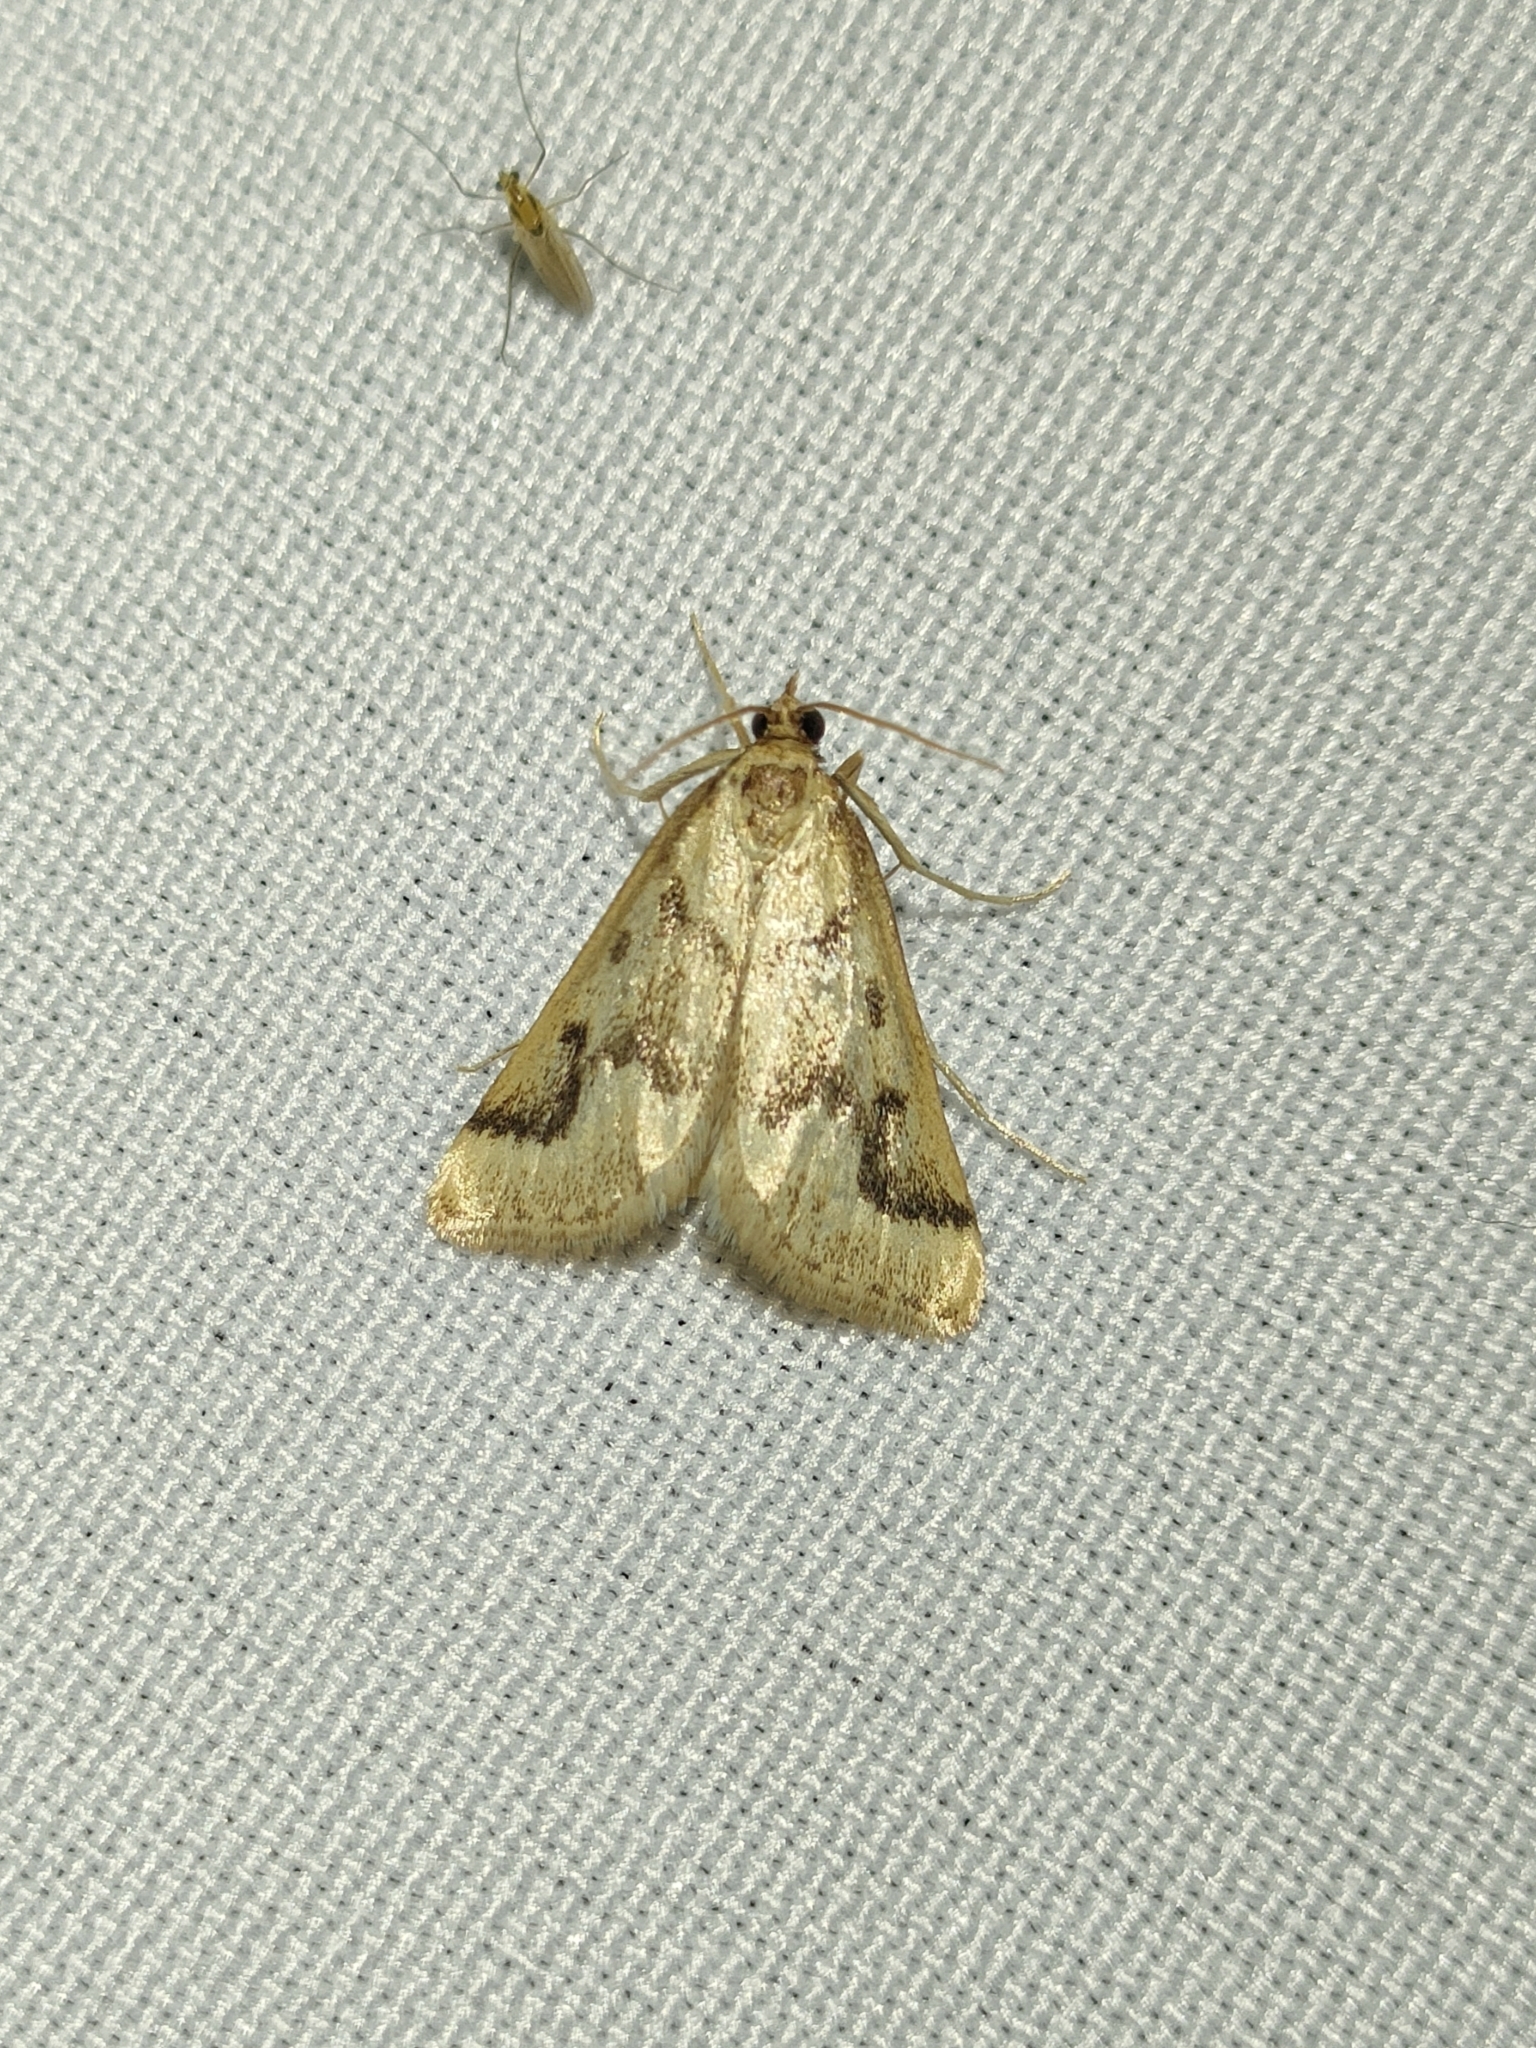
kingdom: Animalia
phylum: Arthropoda
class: Insecta
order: Lepidoptera
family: Crambidae
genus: Palepicorsia
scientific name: Palepicorsia ustrinalis
